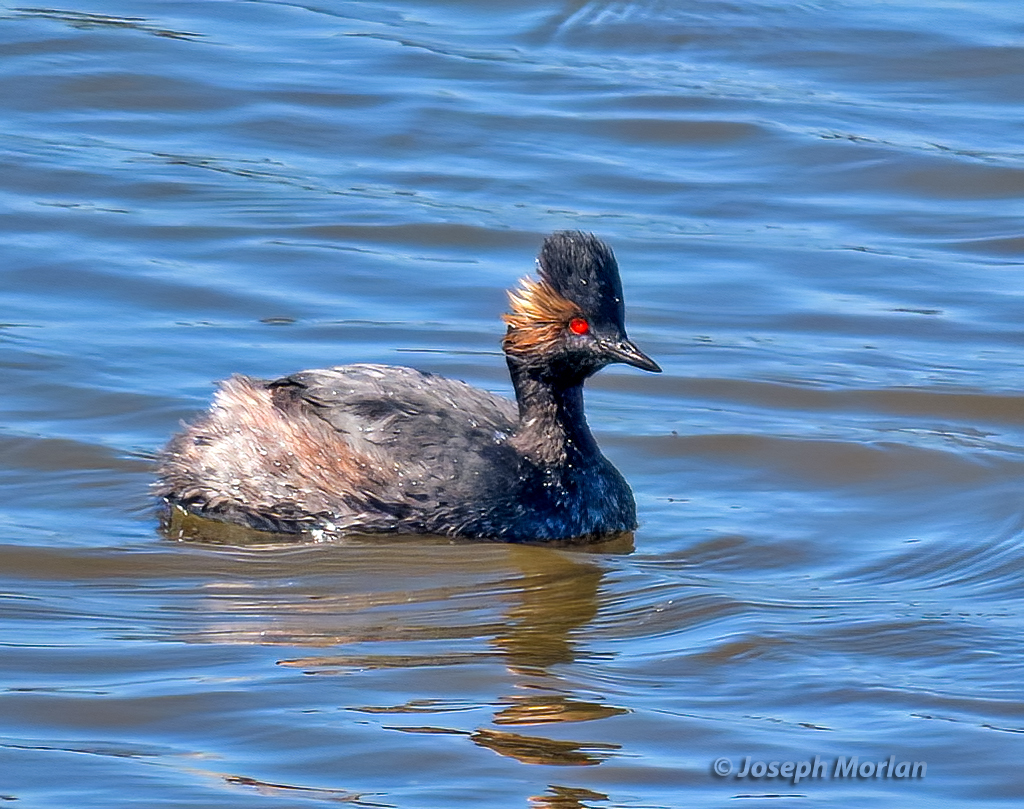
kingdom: Animalia
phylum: Chordata
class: Aves
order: Podicipediformes
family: Podicipedidae
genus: Podiceps
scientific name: Podiceps nigricollis
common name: Black-necked grebe
